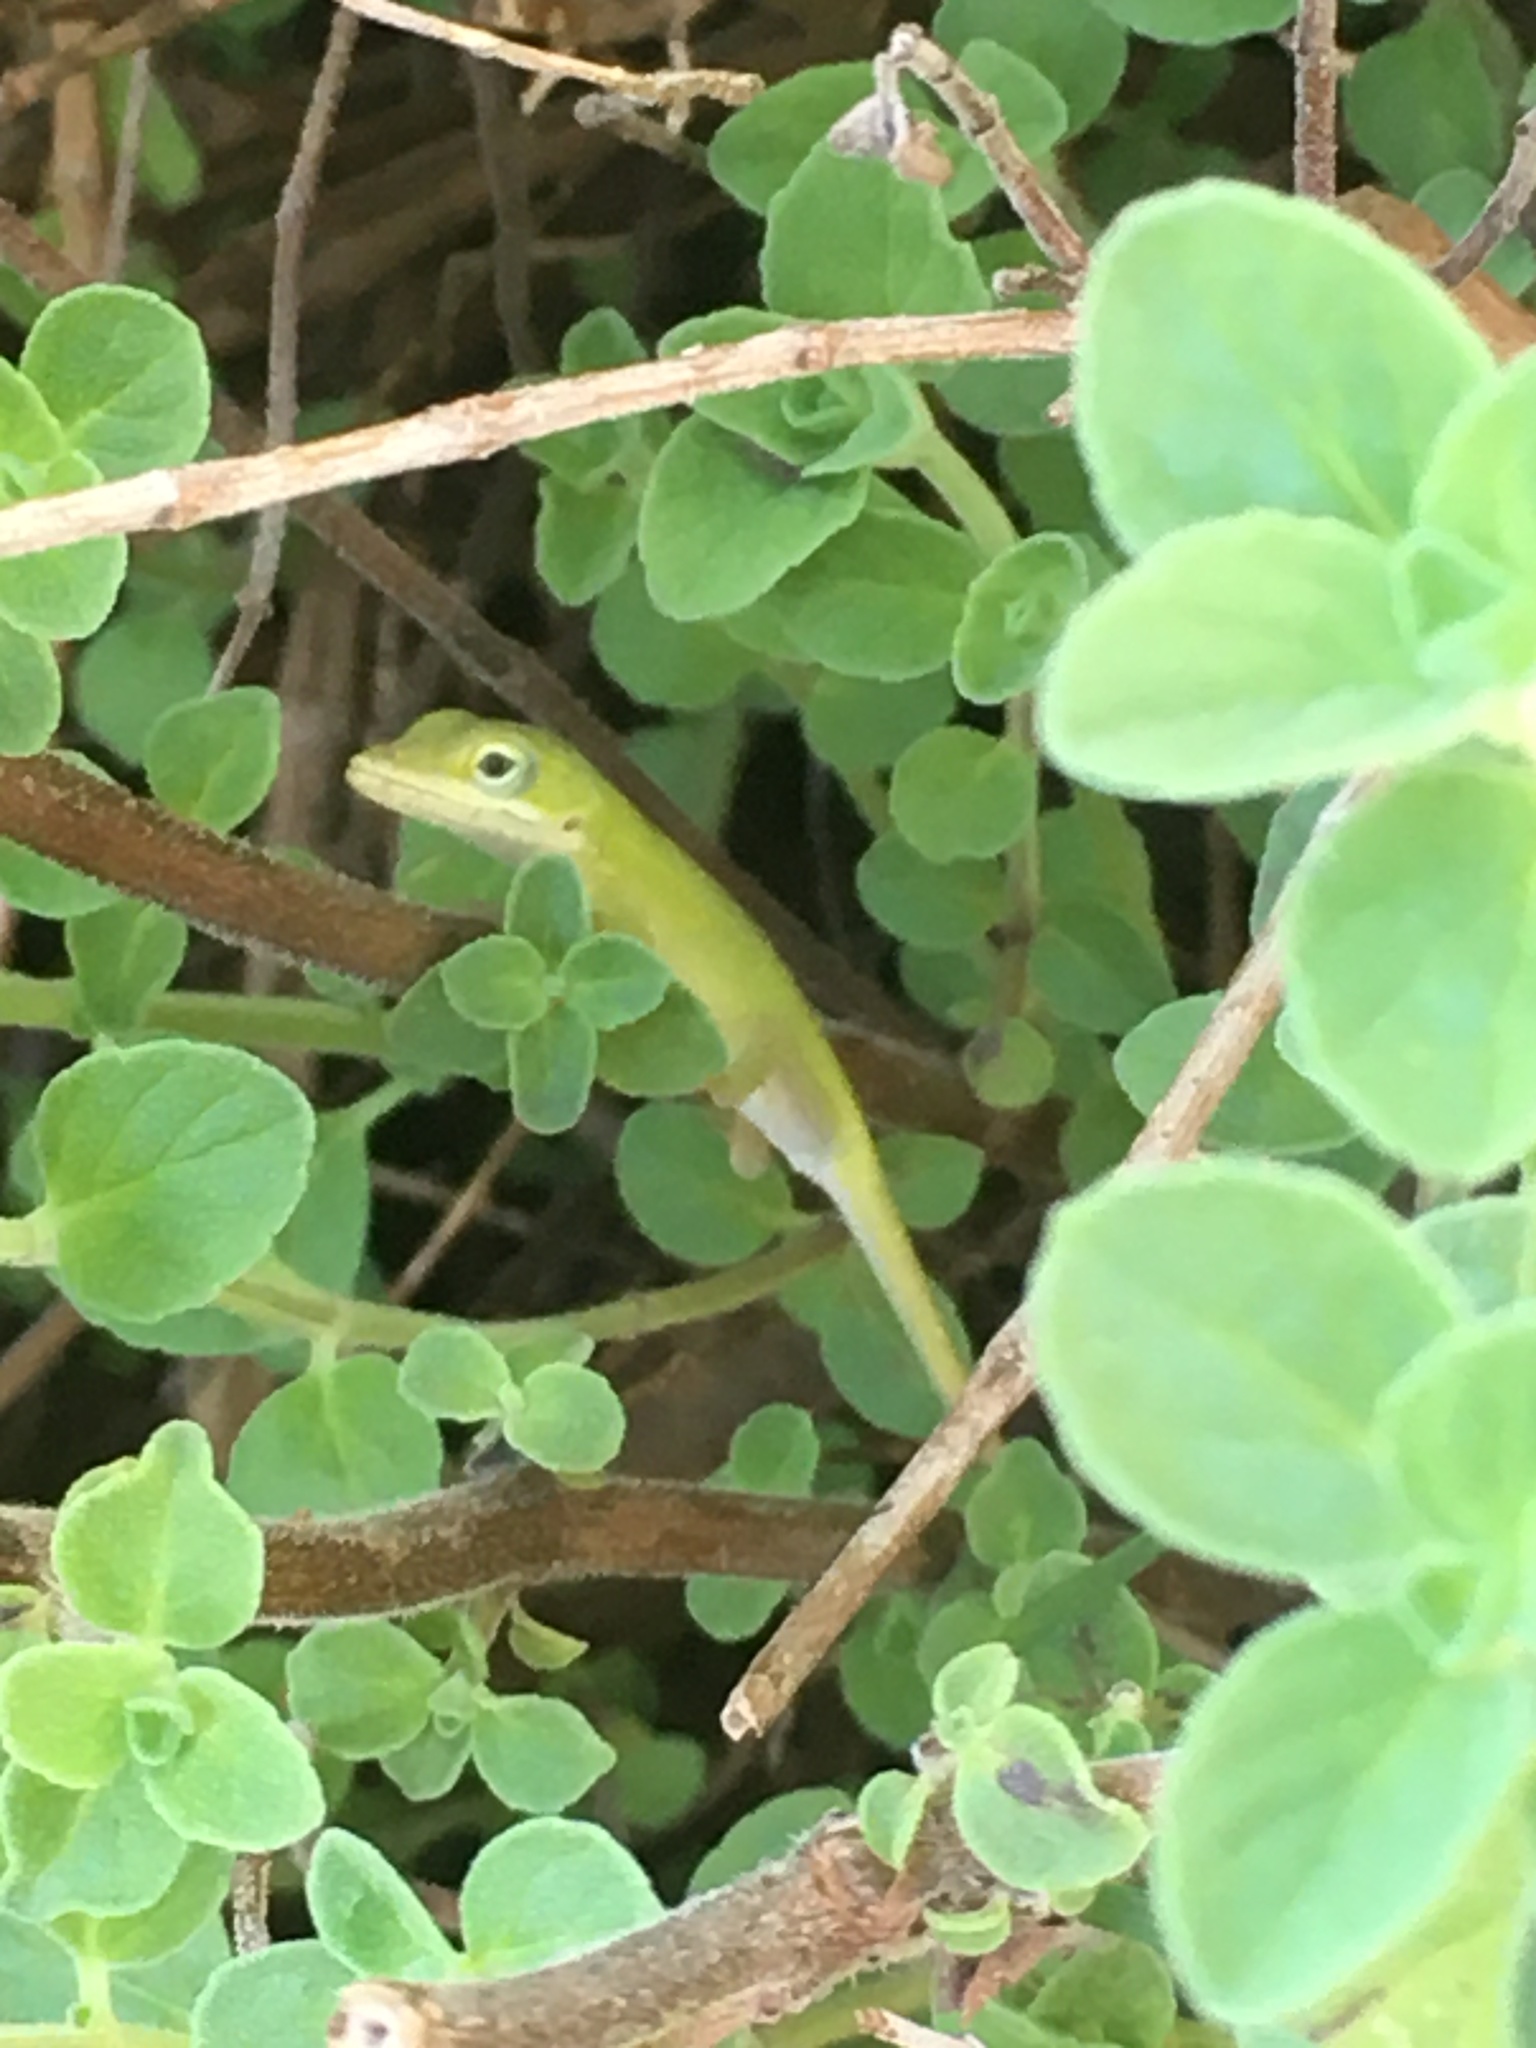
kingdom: Animalia
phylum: Chordata
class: Squamata
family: Dactyloidae
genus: Anolis
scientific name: Anolis carolinensis
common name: Green anole
